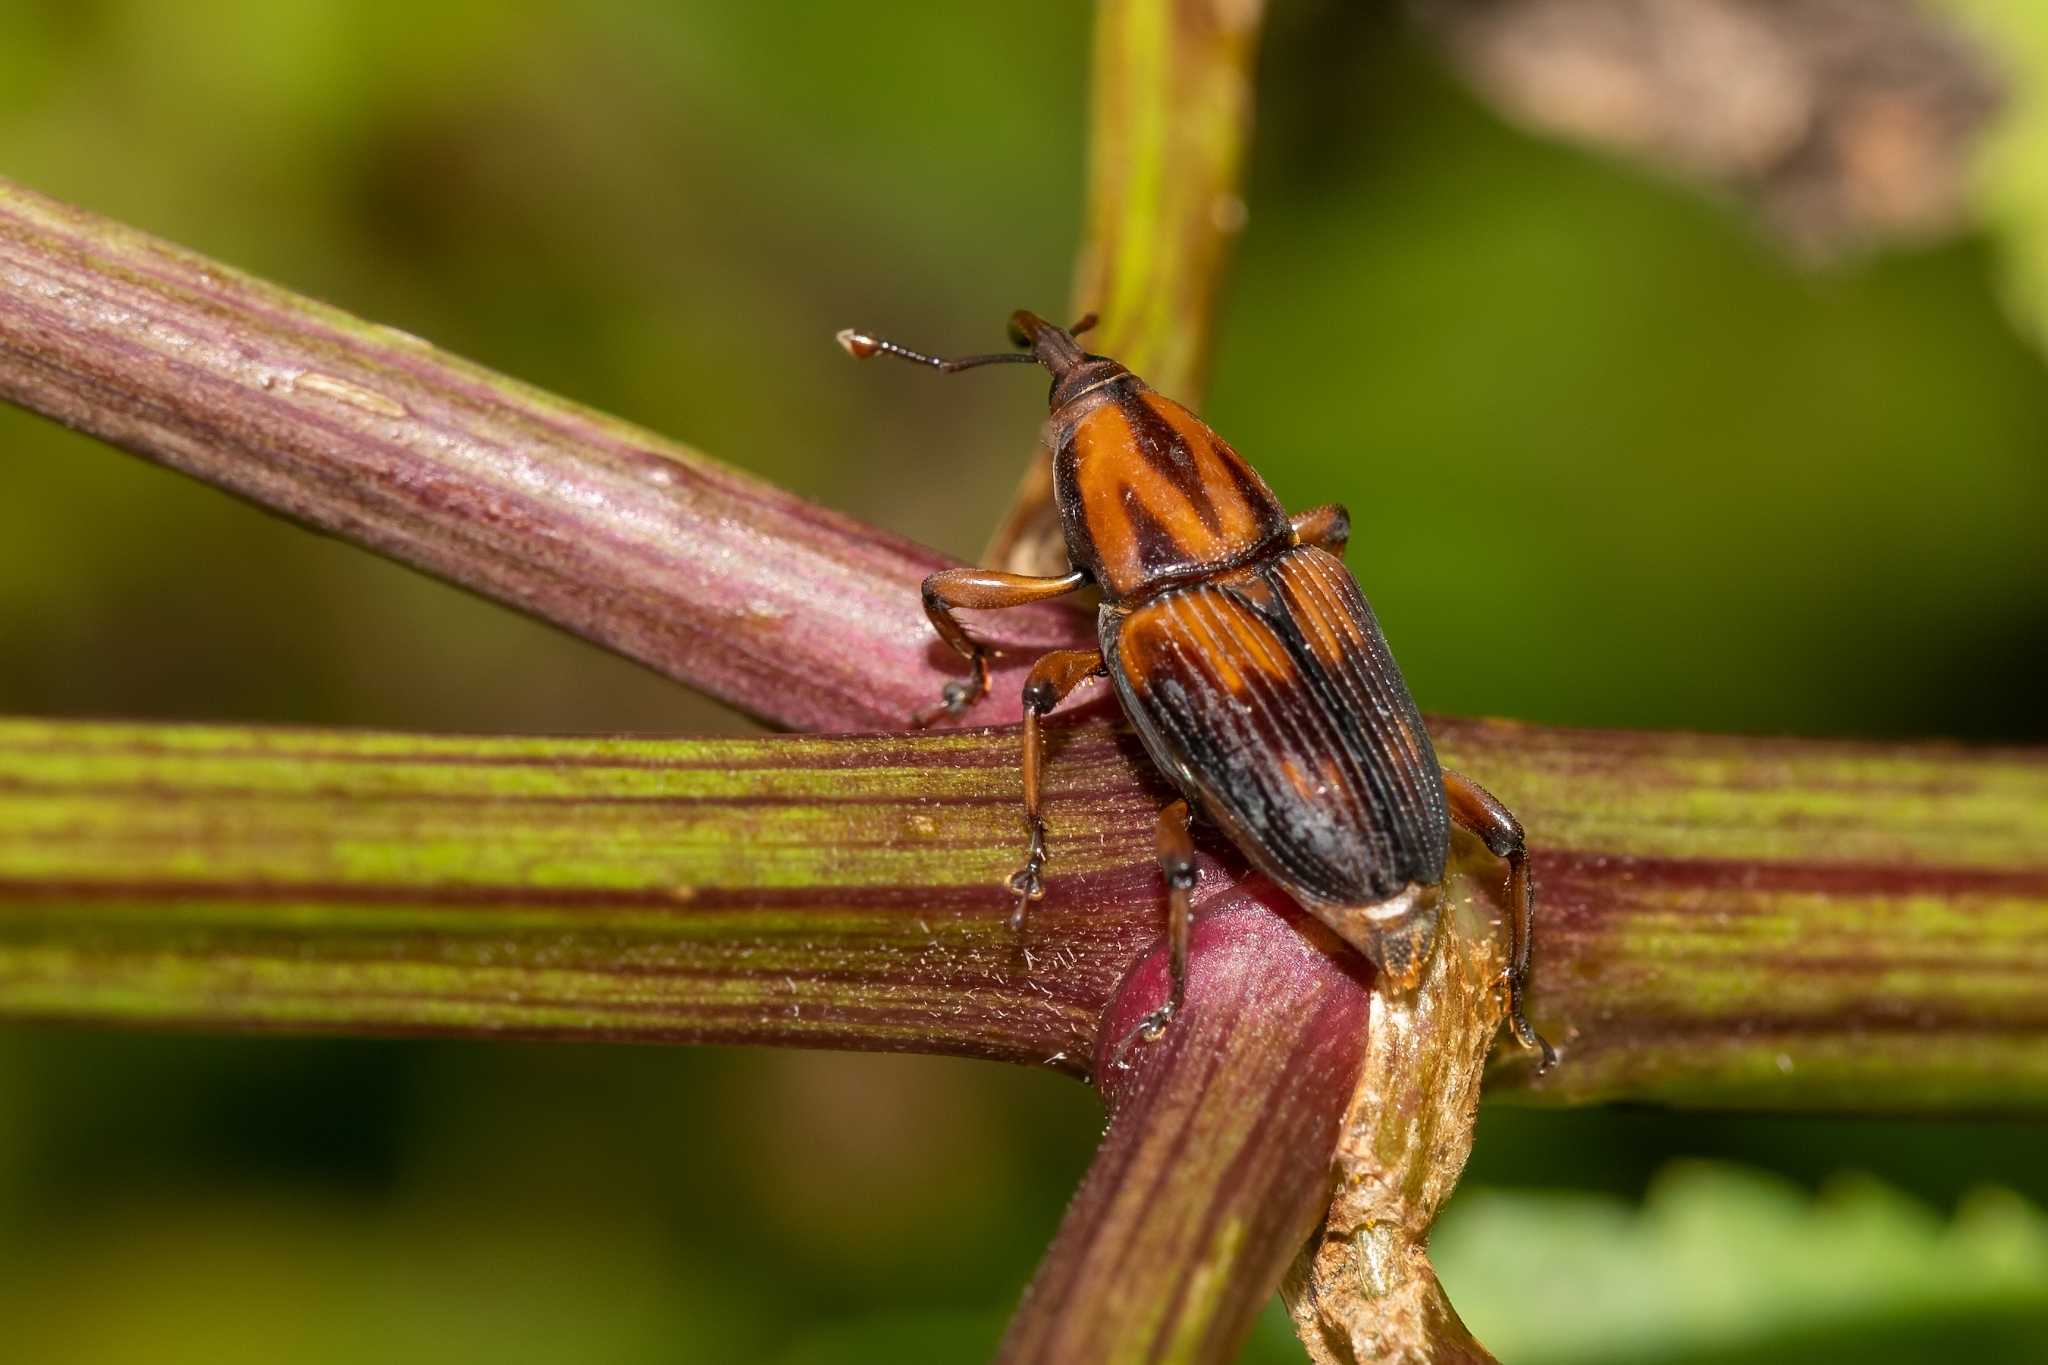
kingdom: Animalia
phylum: Arthropoda
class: Insecta
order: Coleoptera
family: Dryophthoridae
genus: Metamasius
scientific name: Metamasius sericeus
